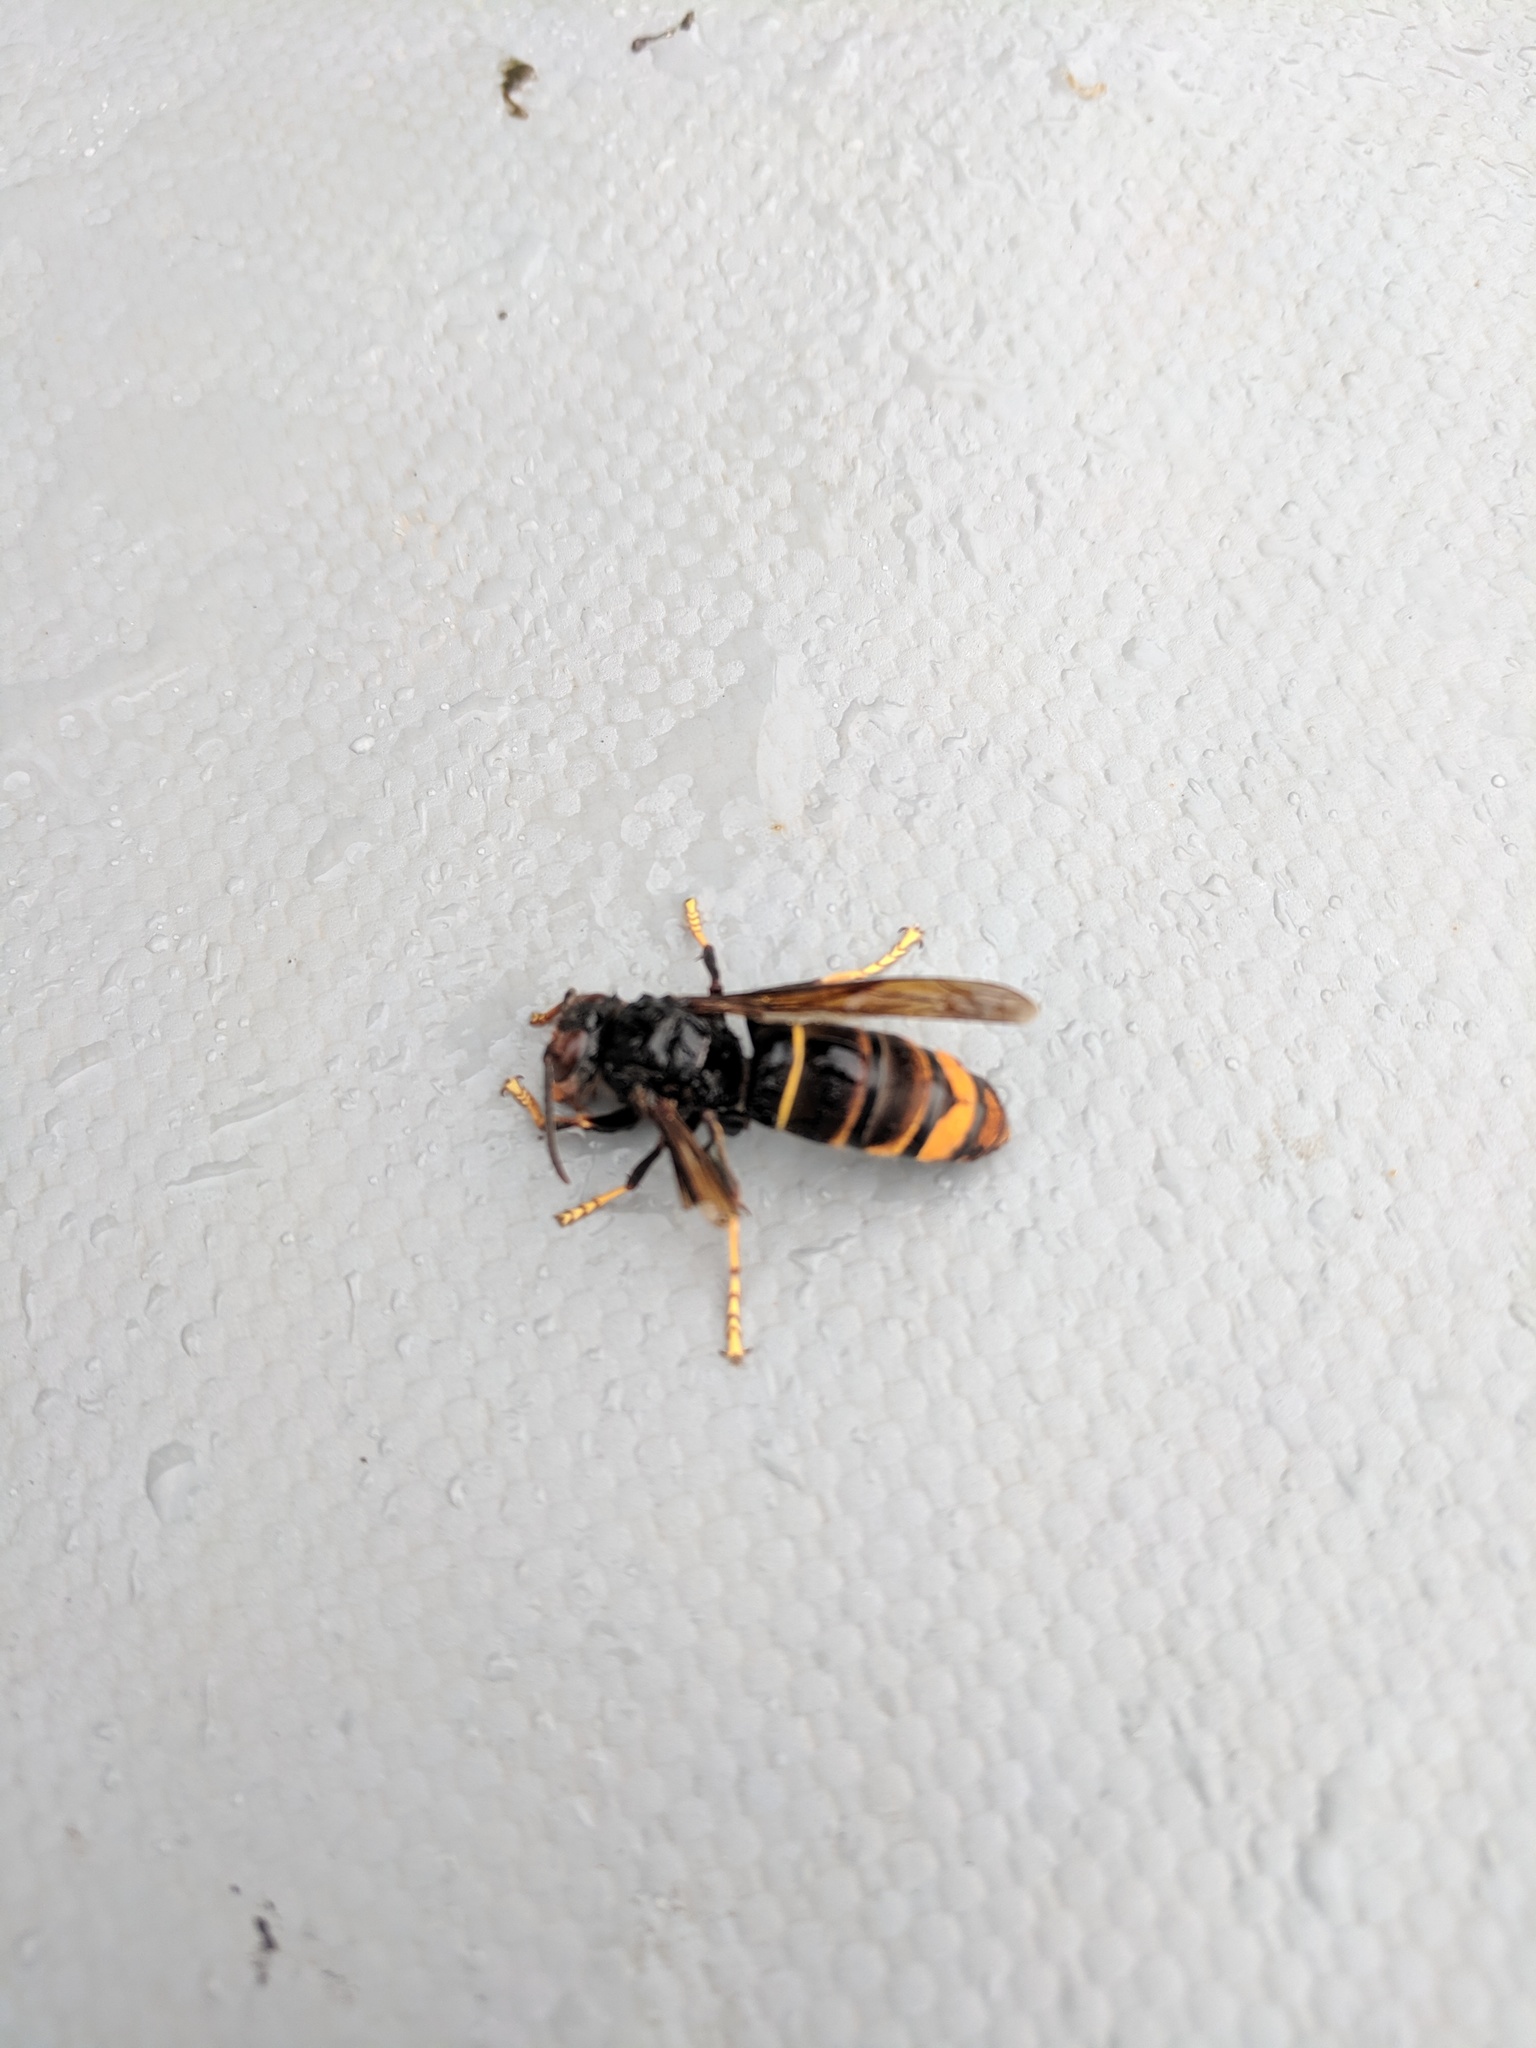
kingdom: Animalia
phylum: Arthropoda
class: Insecta
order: Hymenoptera
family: Vespidae
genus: Vespa
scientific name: Vespa velutina
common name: Asian hornet
